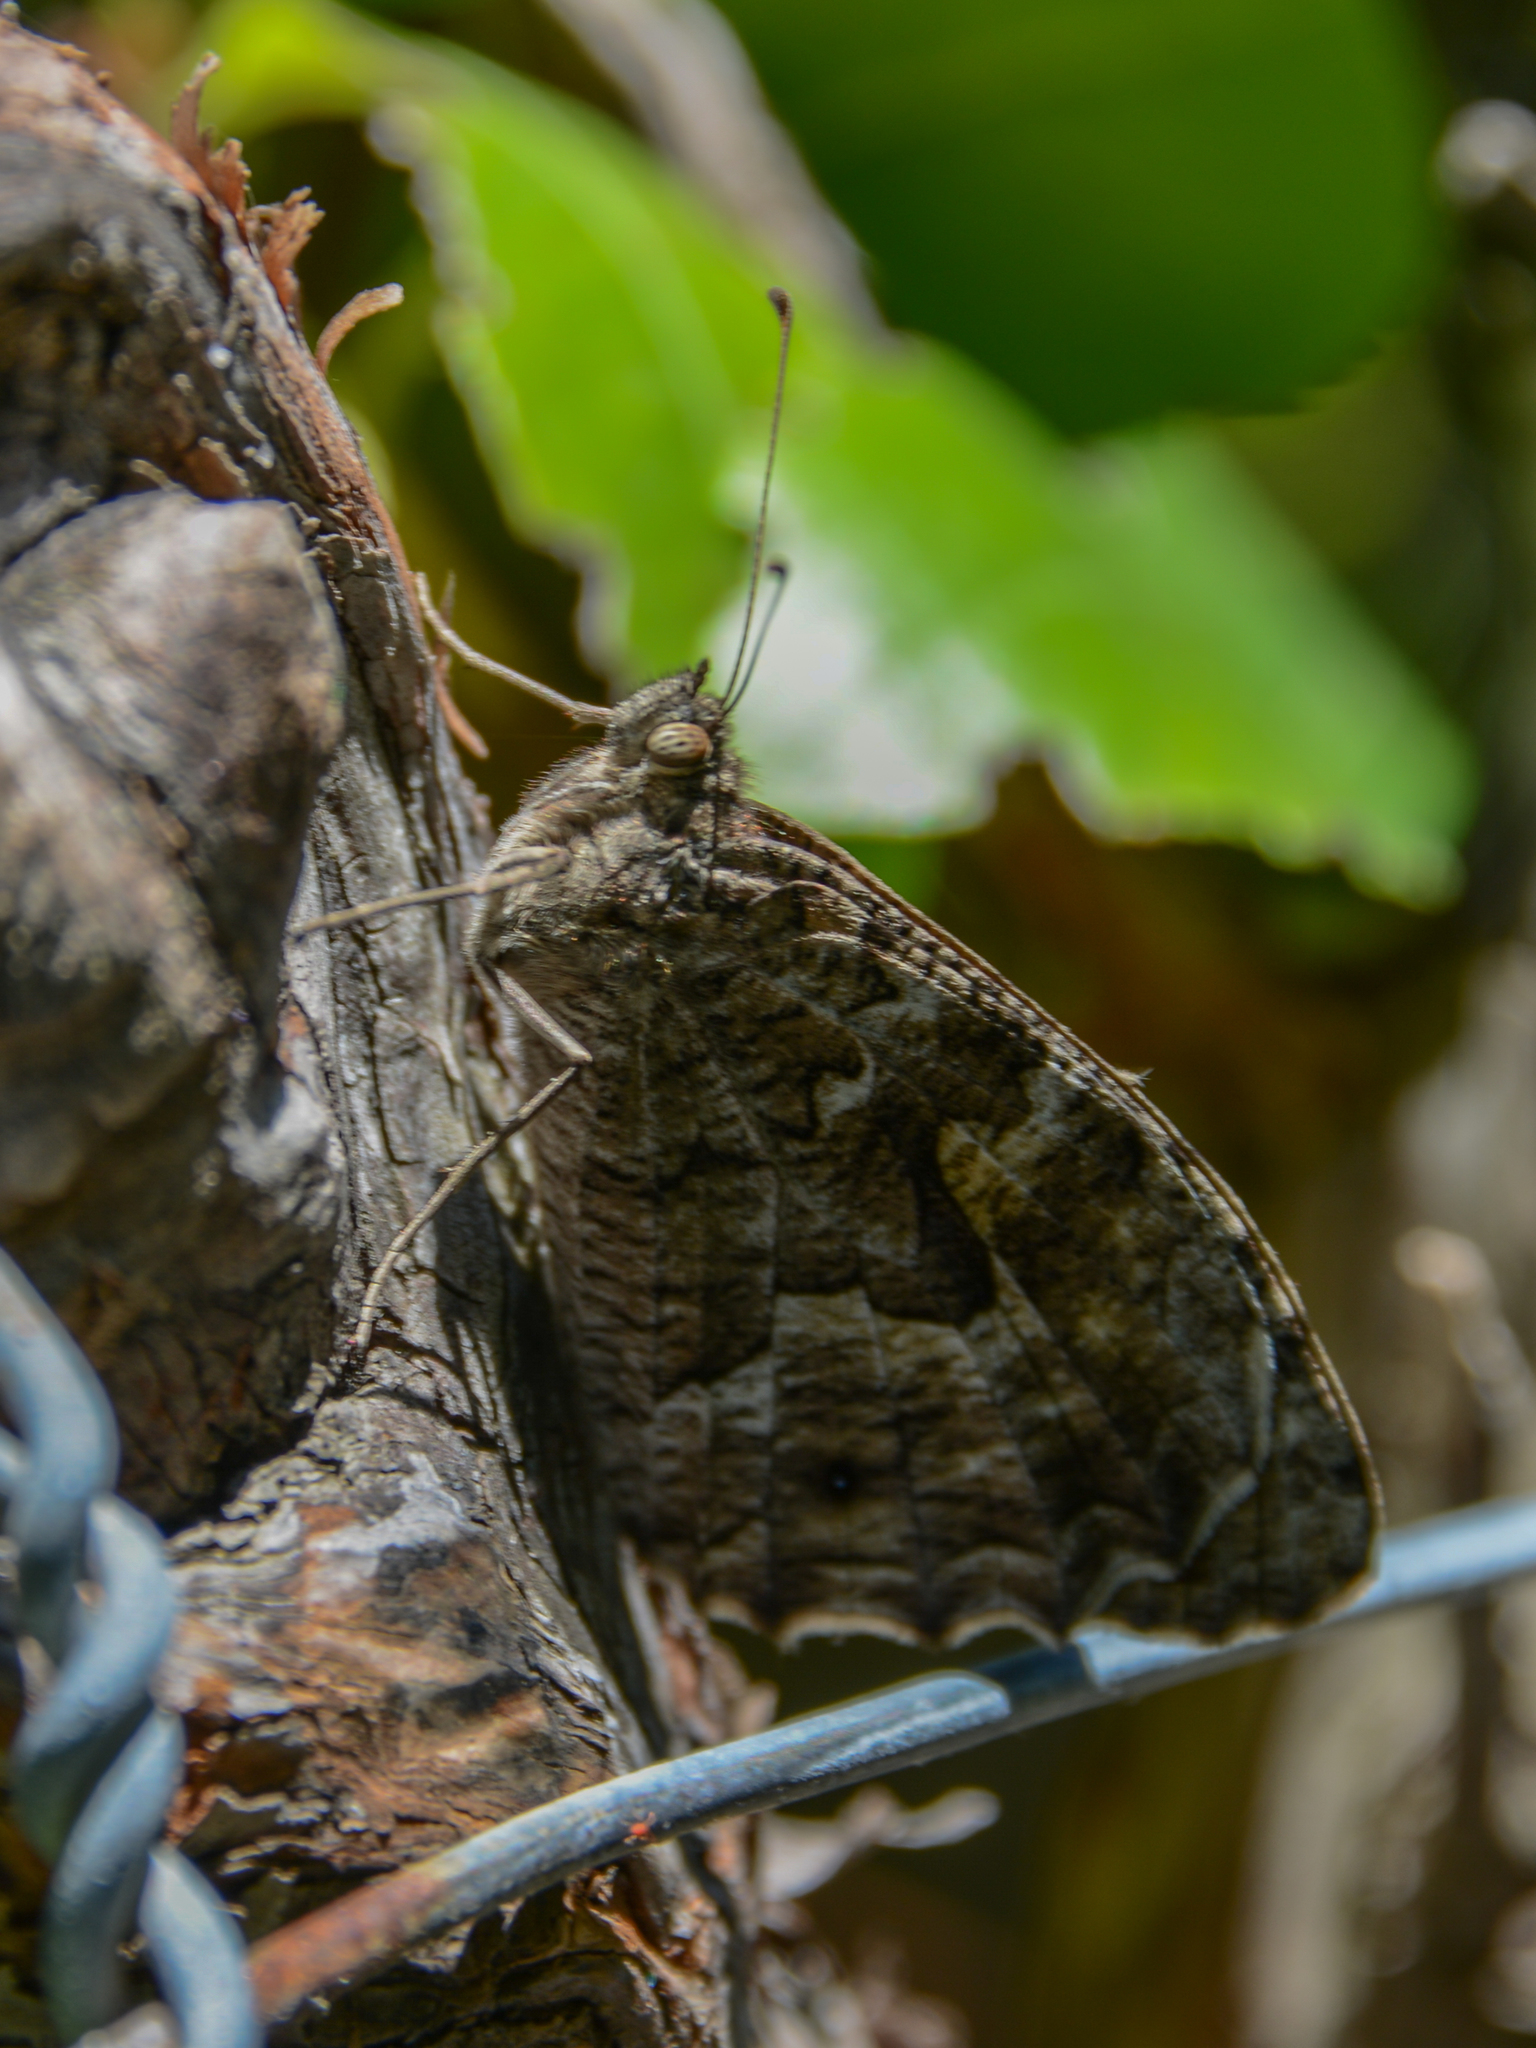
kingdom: Animalia
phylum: Arthropoda
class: Insecta
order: Lepidoptera
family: Nymphalidae
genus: Hipparchia
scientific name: Hipparchia cretica
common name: Cretan grayling
